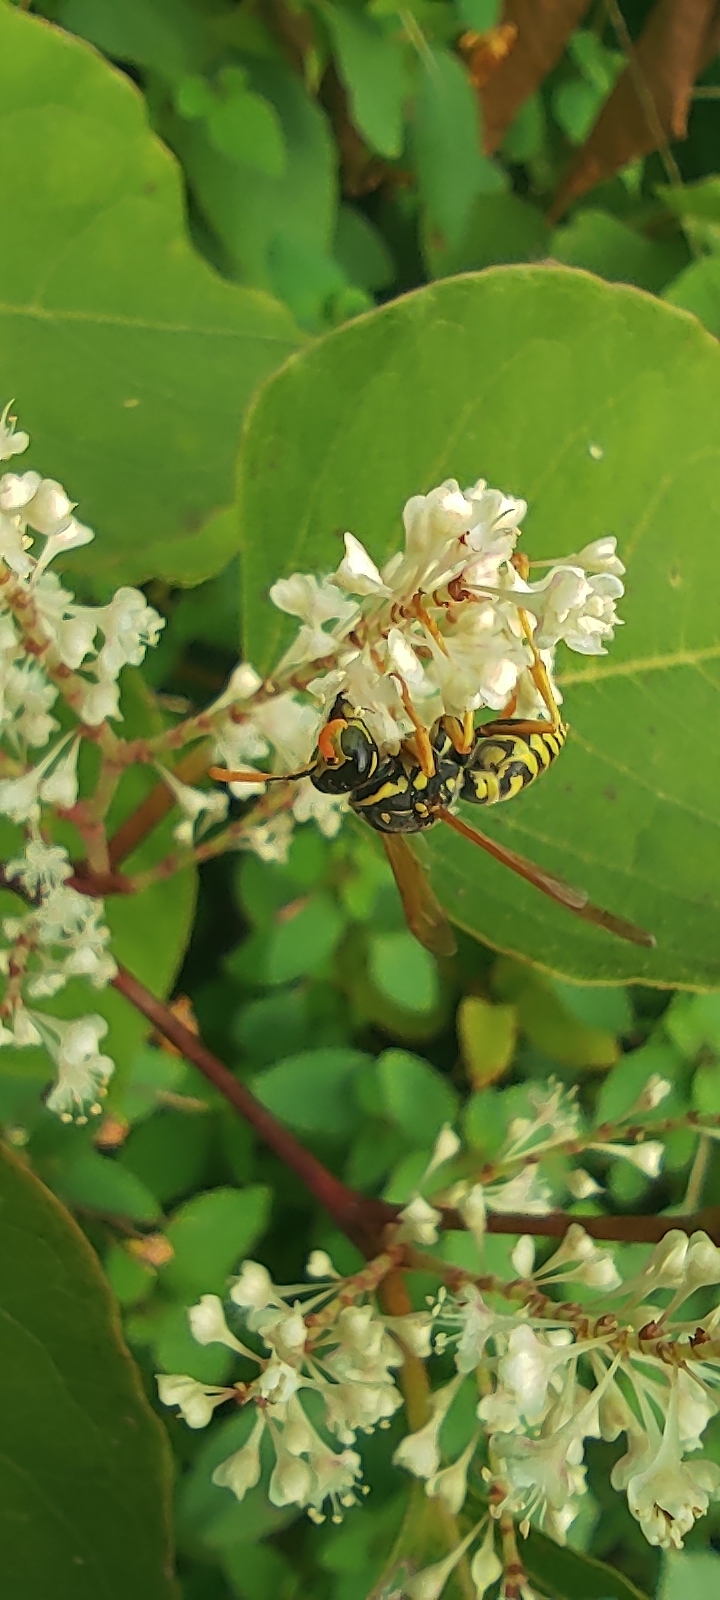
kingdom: Animalia
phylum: Arthropoda
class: Insecta
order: Hymenoptera
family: Eumenidae
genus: Polistes
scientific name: Polistes dominula
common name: Paper wasp
